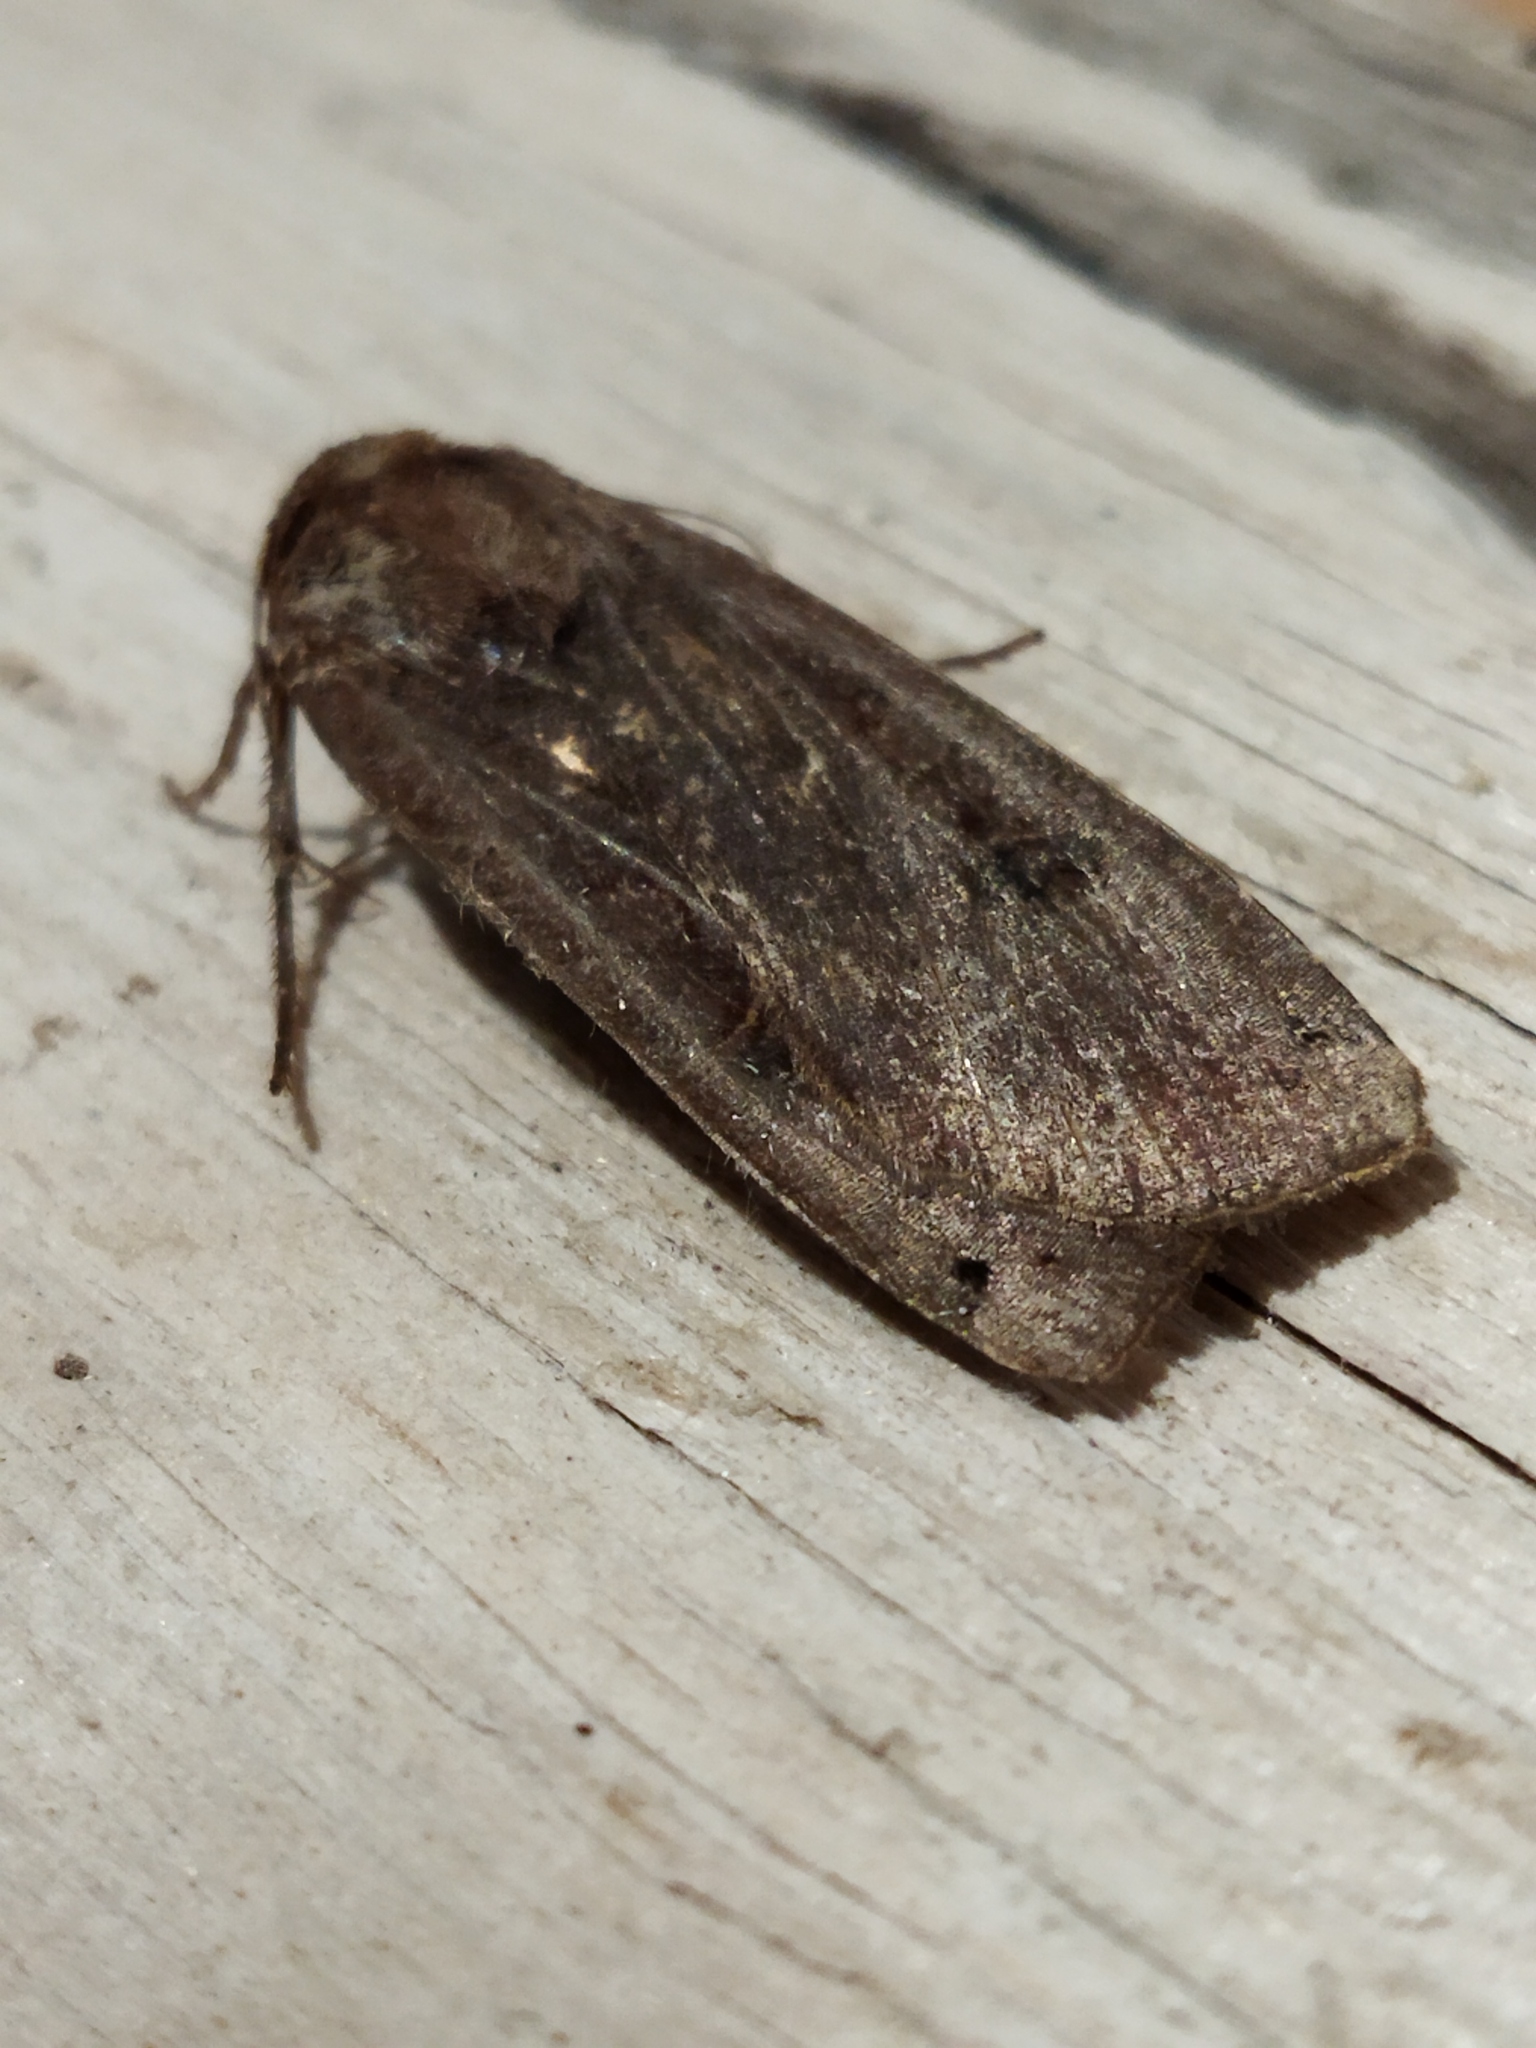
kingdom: Animalia
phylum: Arthropoda
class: Insecta
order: Lepidoptera
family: Noctuidae
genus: Noctua
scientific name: Noctua pronuba
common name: Large yellow underwing
